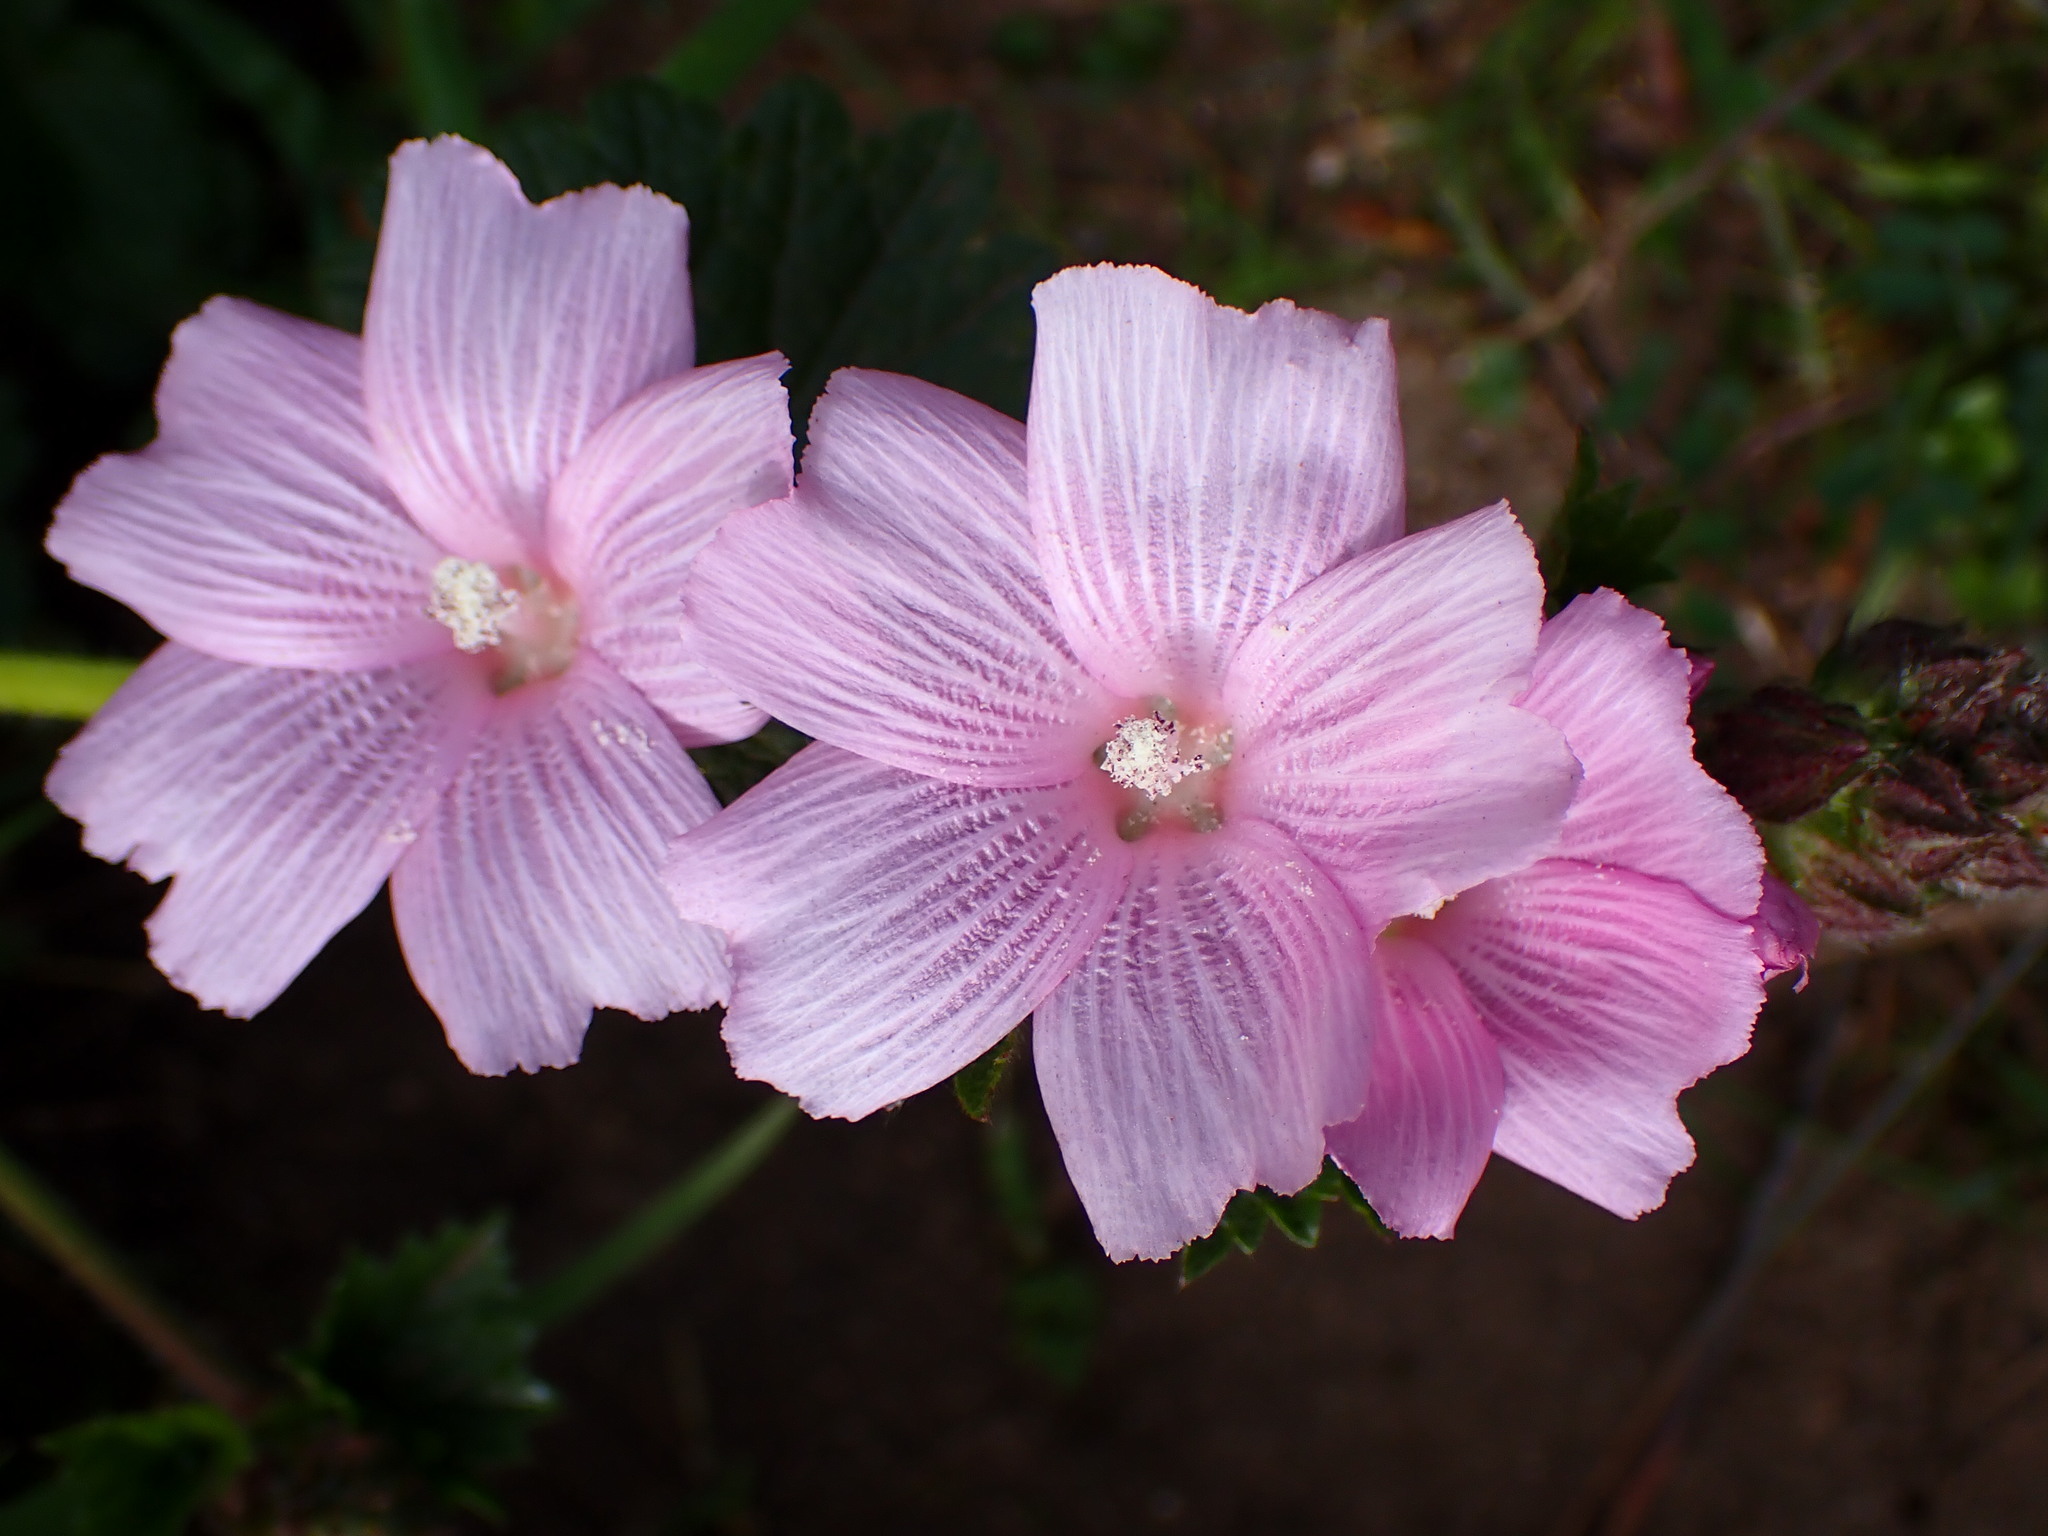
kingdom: Plantae
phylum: Tracheophyta
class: Magnoliopsida
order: Malvales
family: Malvaceae
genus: Sidalcea
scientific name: Sidalcea malviflora
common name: Greek mallow
